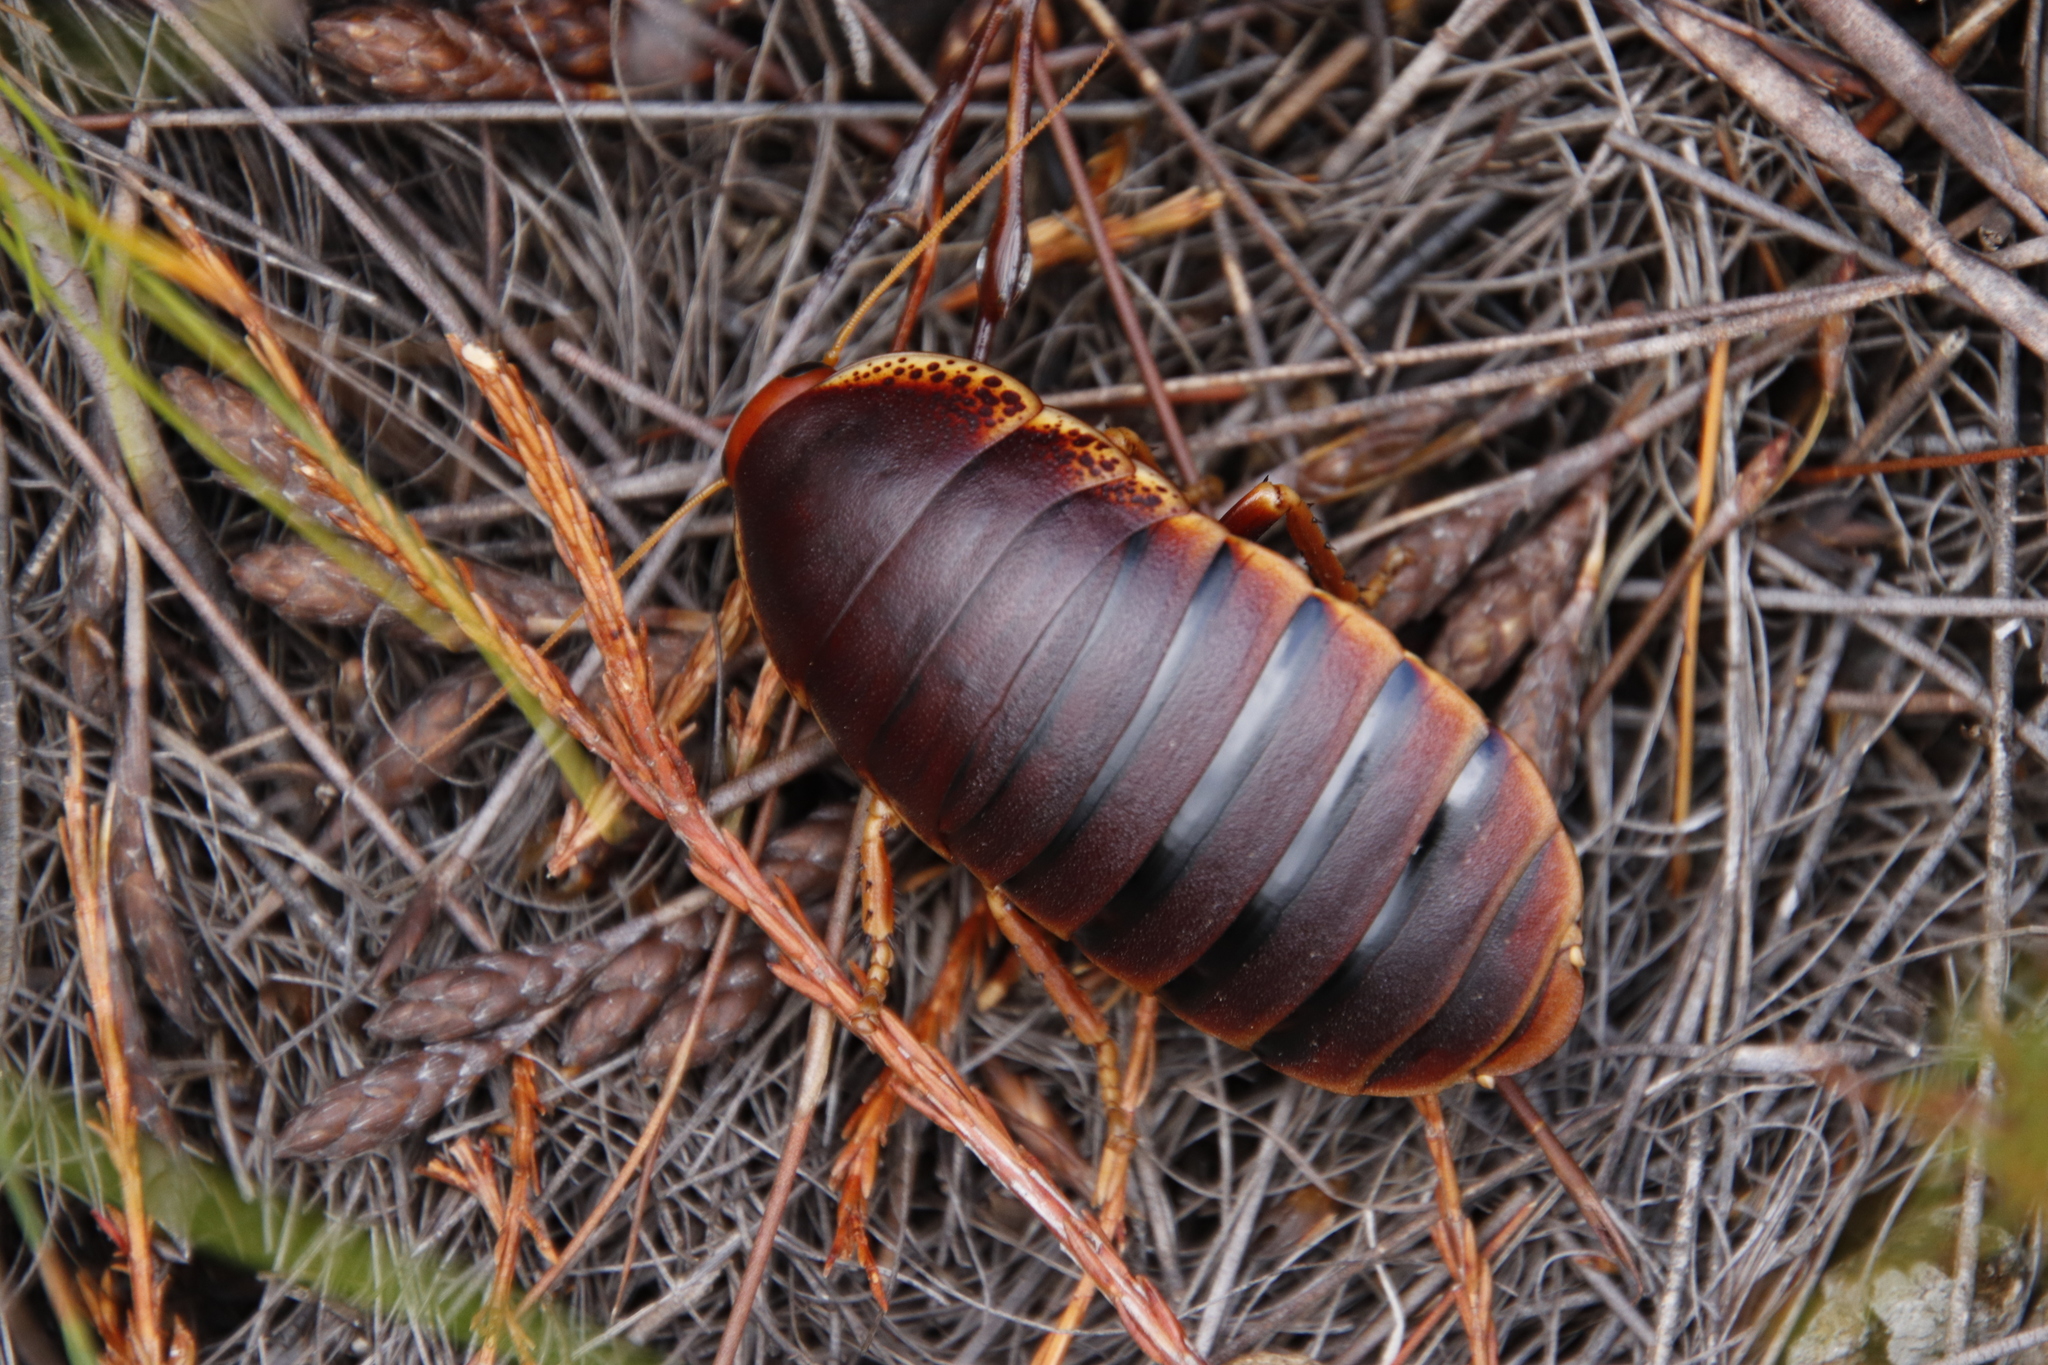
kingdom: Animalia
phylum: Arthropoda
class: Insecta
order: Blattodea
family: Blaberidae
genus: Aptera
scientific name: Aptera fusca
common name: Cape mountain cockroach
